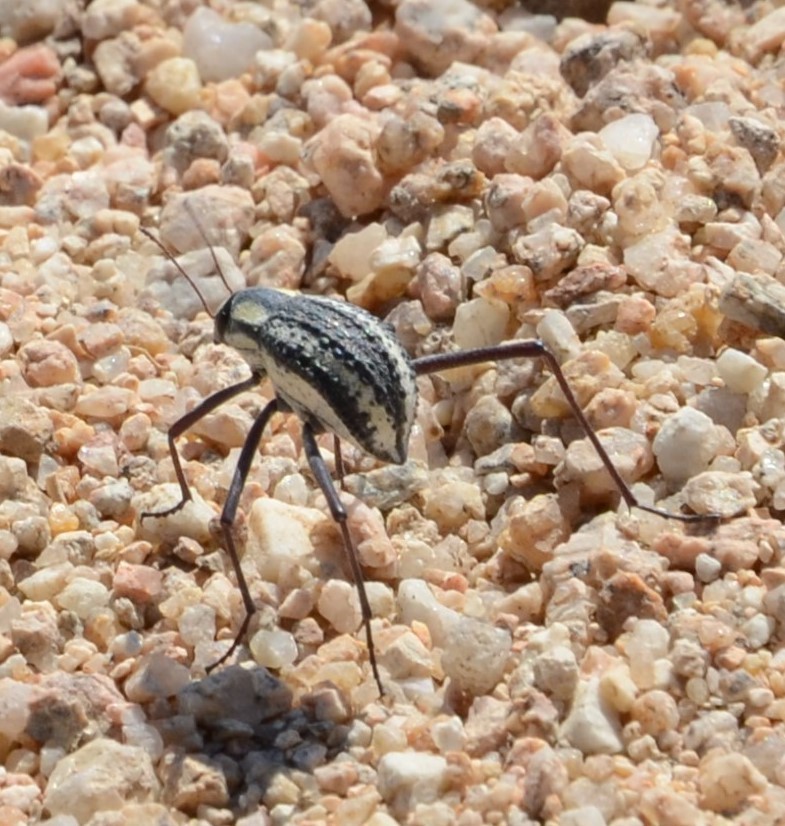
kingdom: Animalia
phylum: Arthropoda
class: Insecta
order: Coleoptera
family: Tenebrionidae
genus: Stenocara
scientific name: Stenocara
